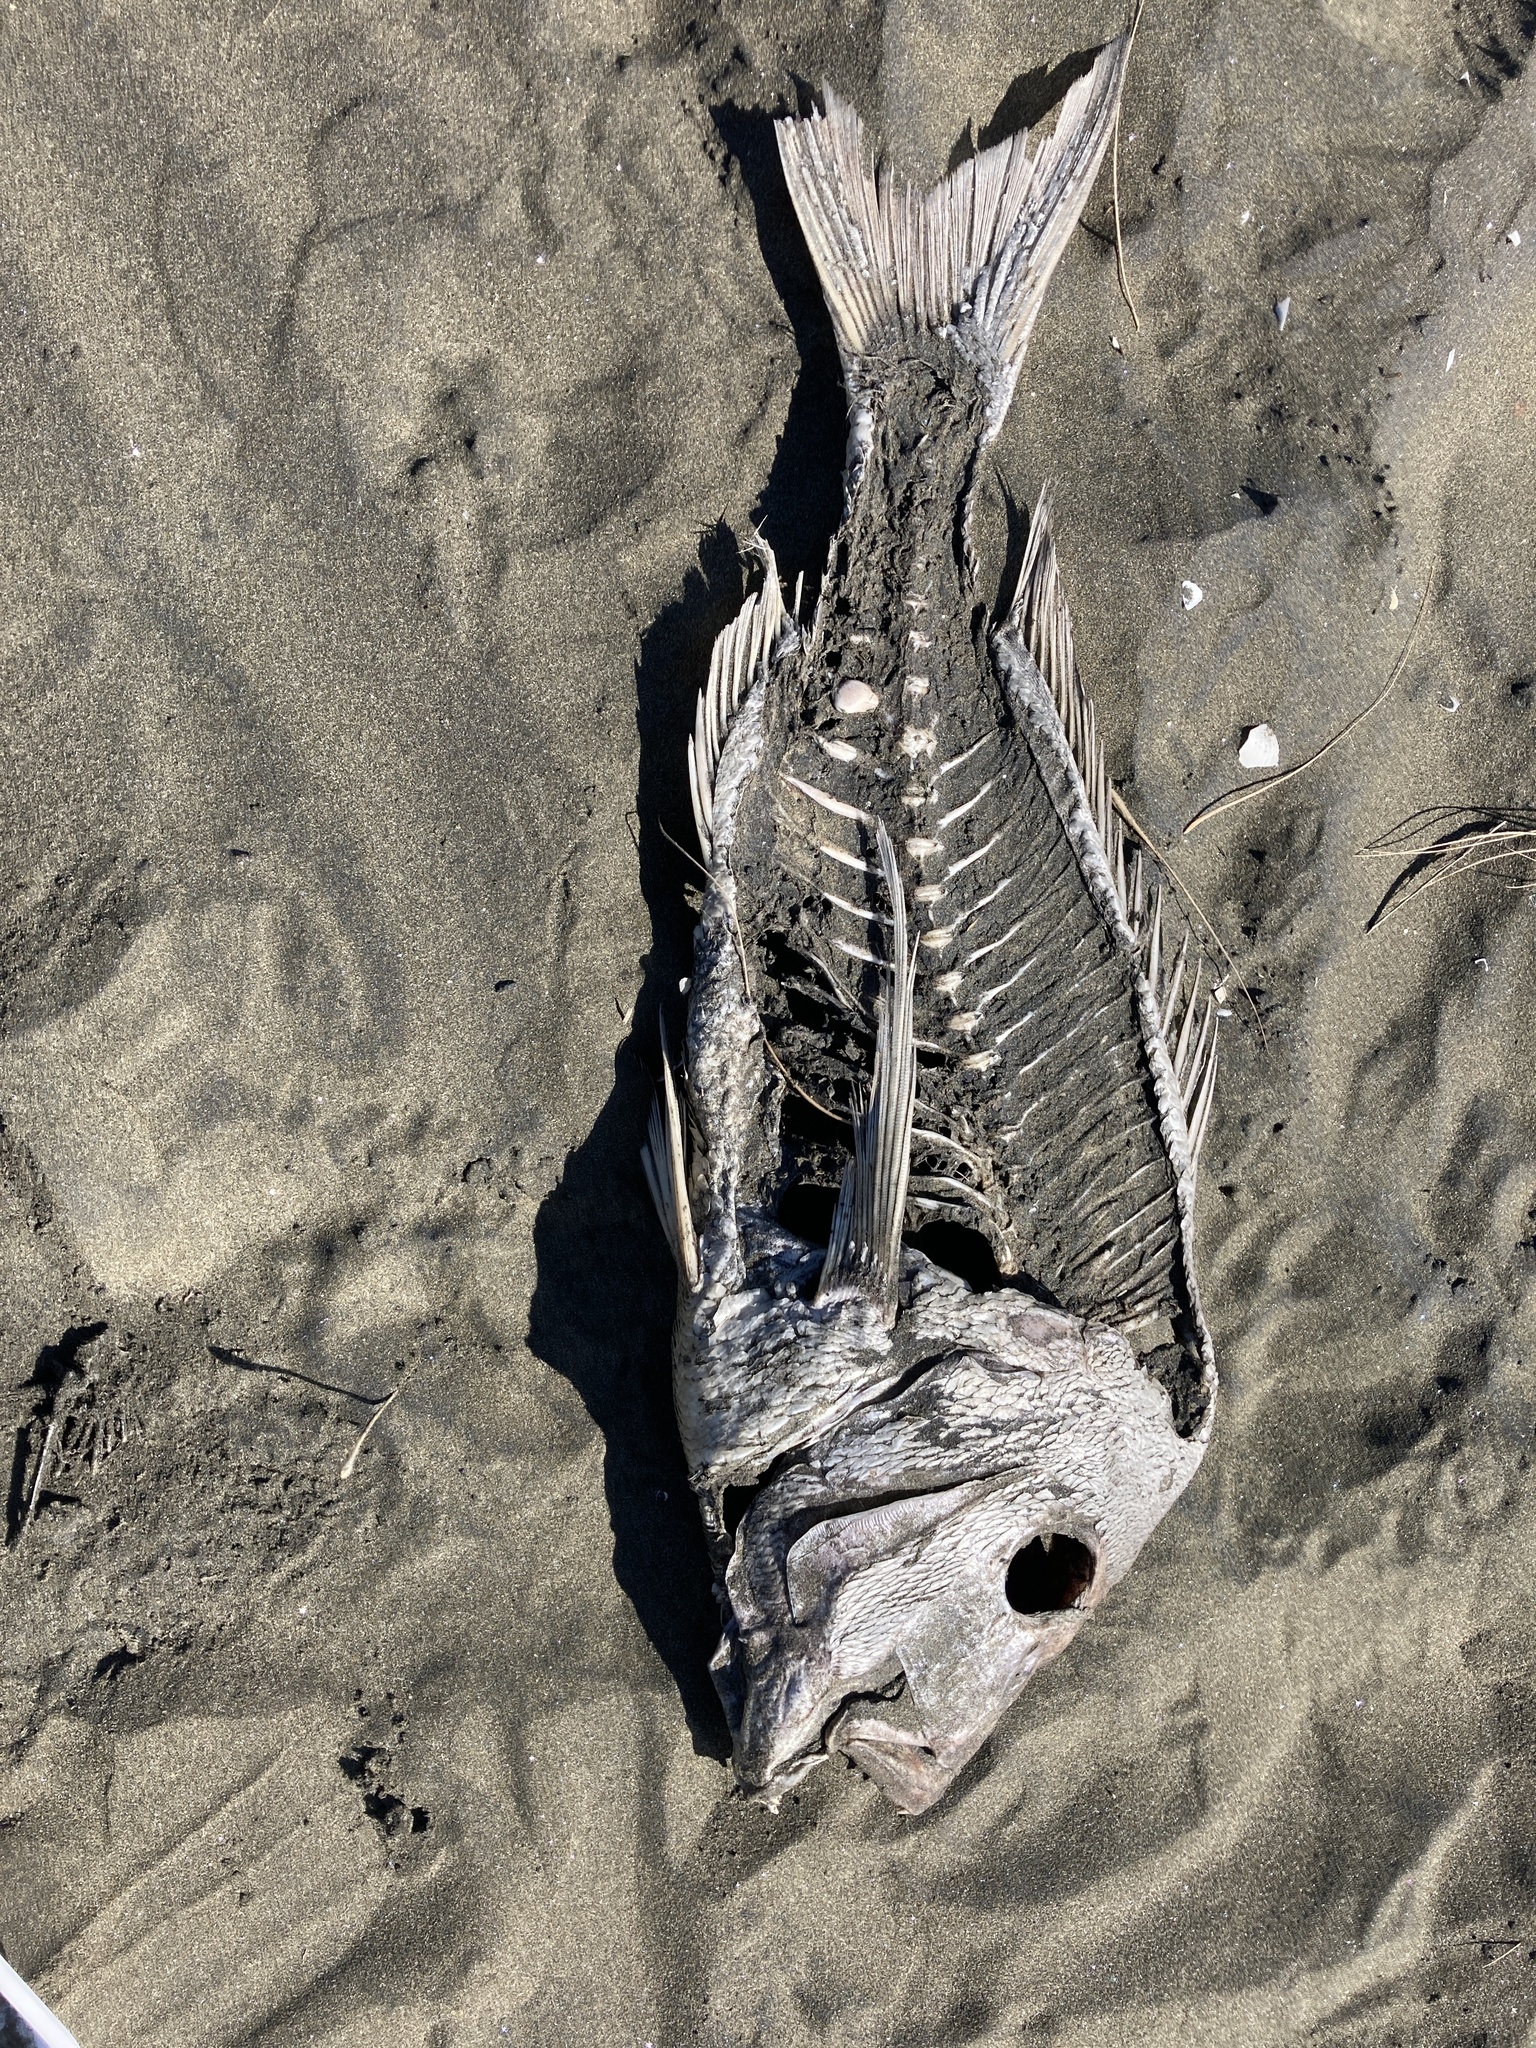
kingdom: Animalia
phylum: Chordata
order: Perciformes
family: Sparidae
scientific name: Sparidae
